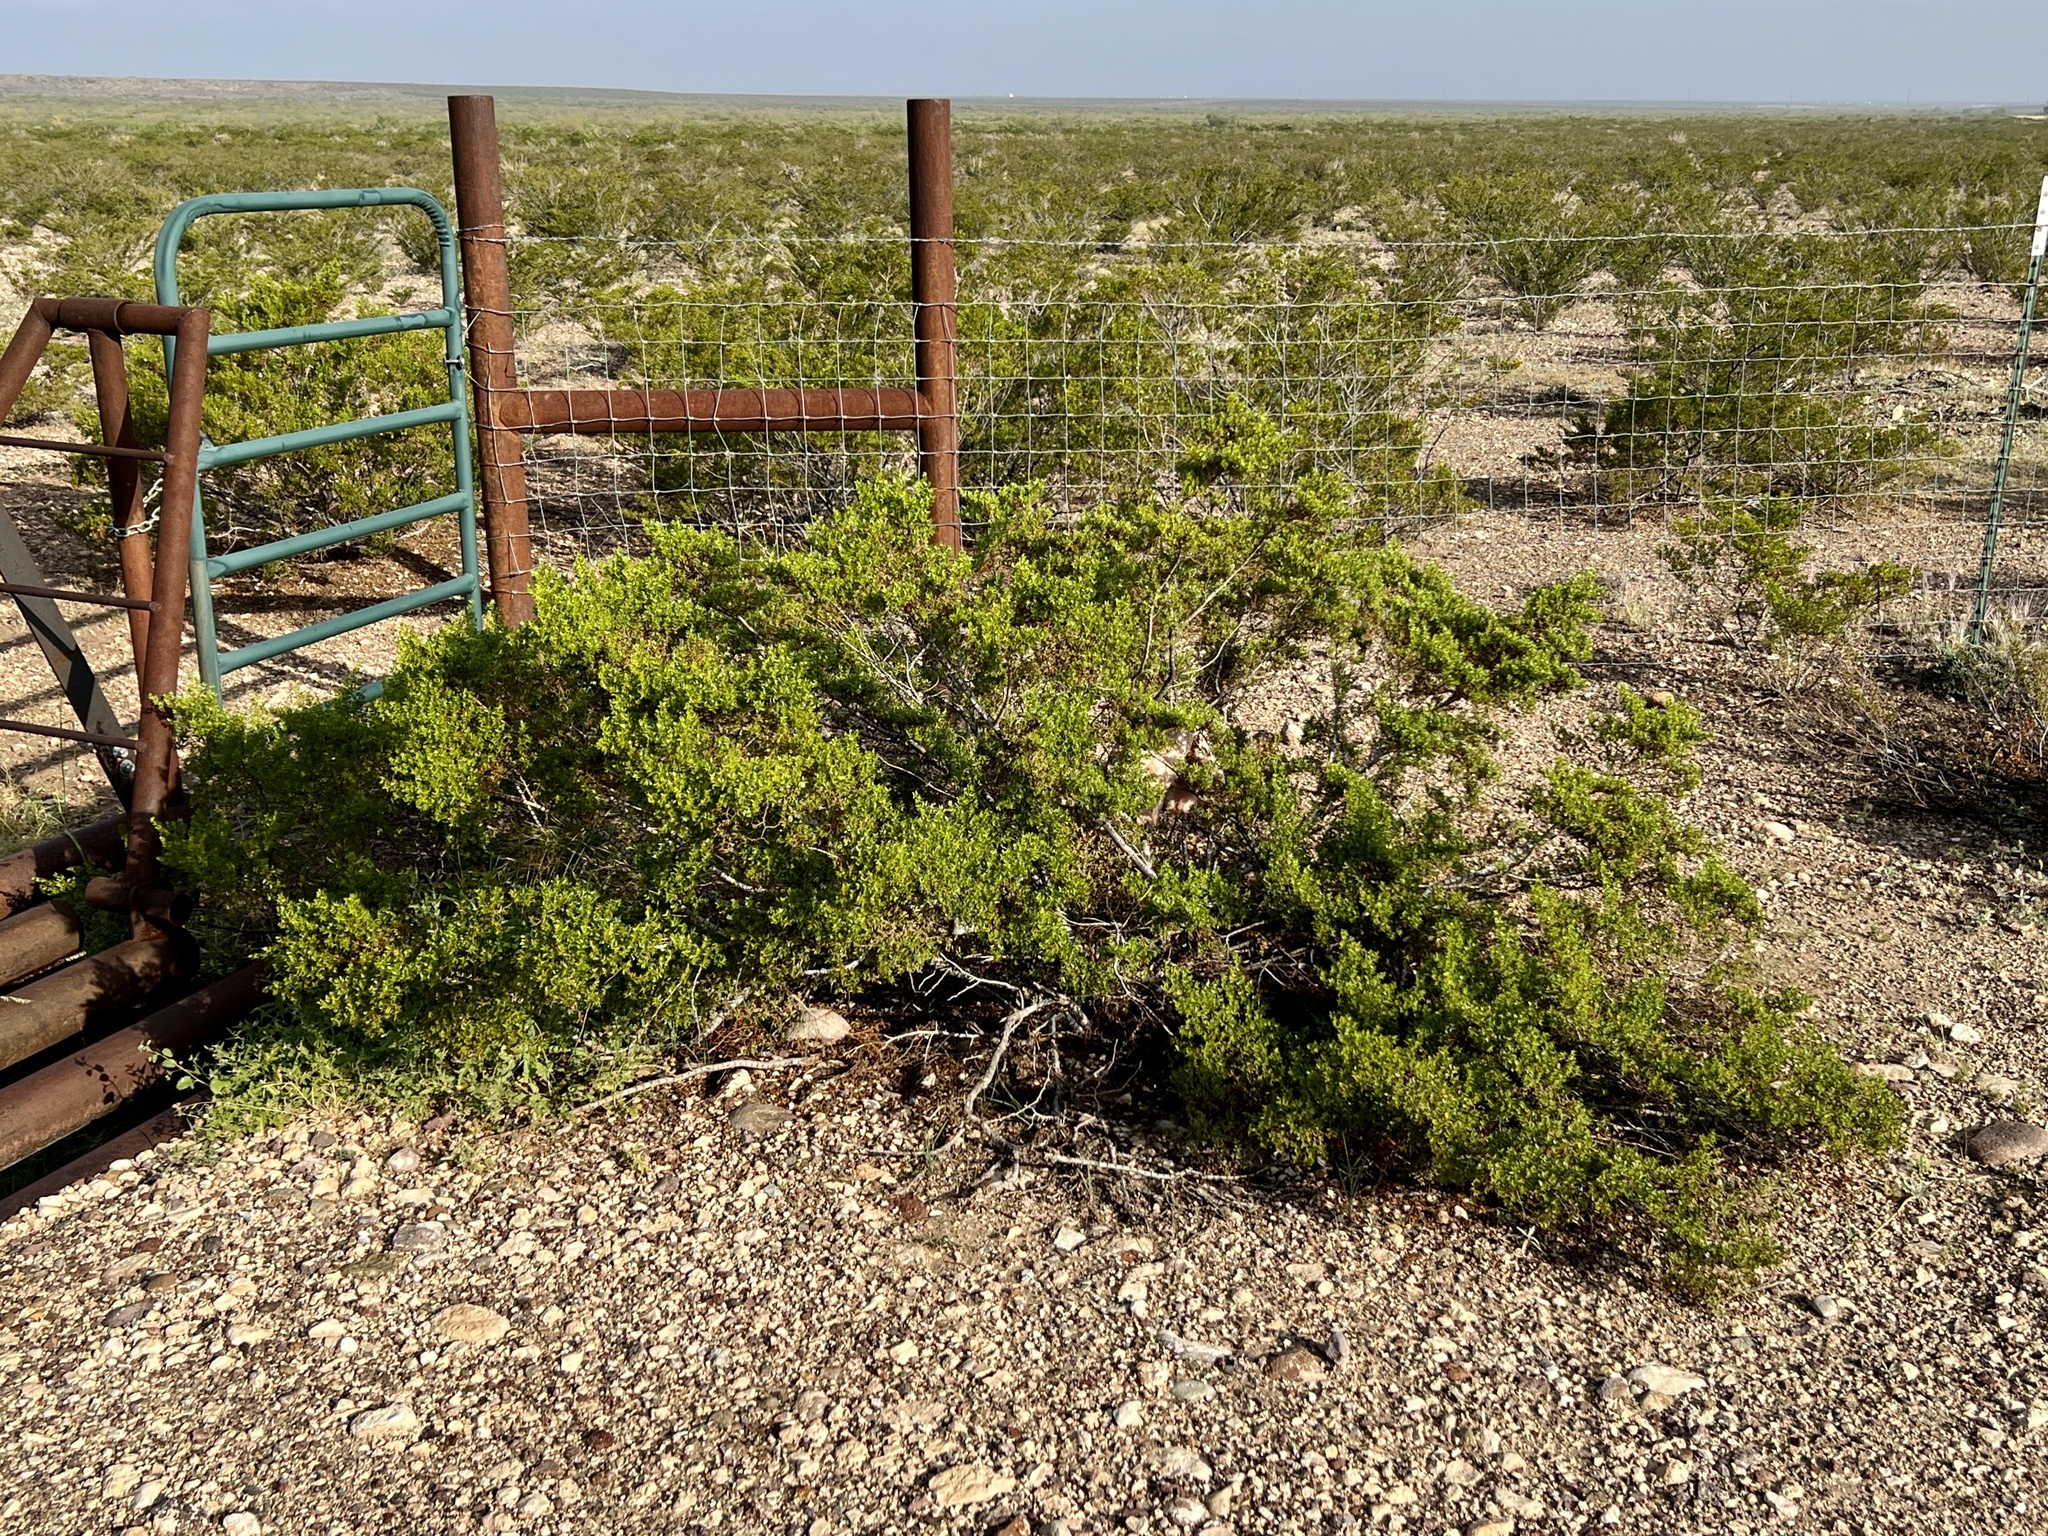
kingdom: Plantae
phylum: Tracheophyta
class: Magnoliopsida
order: Zygophyllales
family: Zygophyllaceae
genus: Larrea
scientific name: Larrea tridentata
